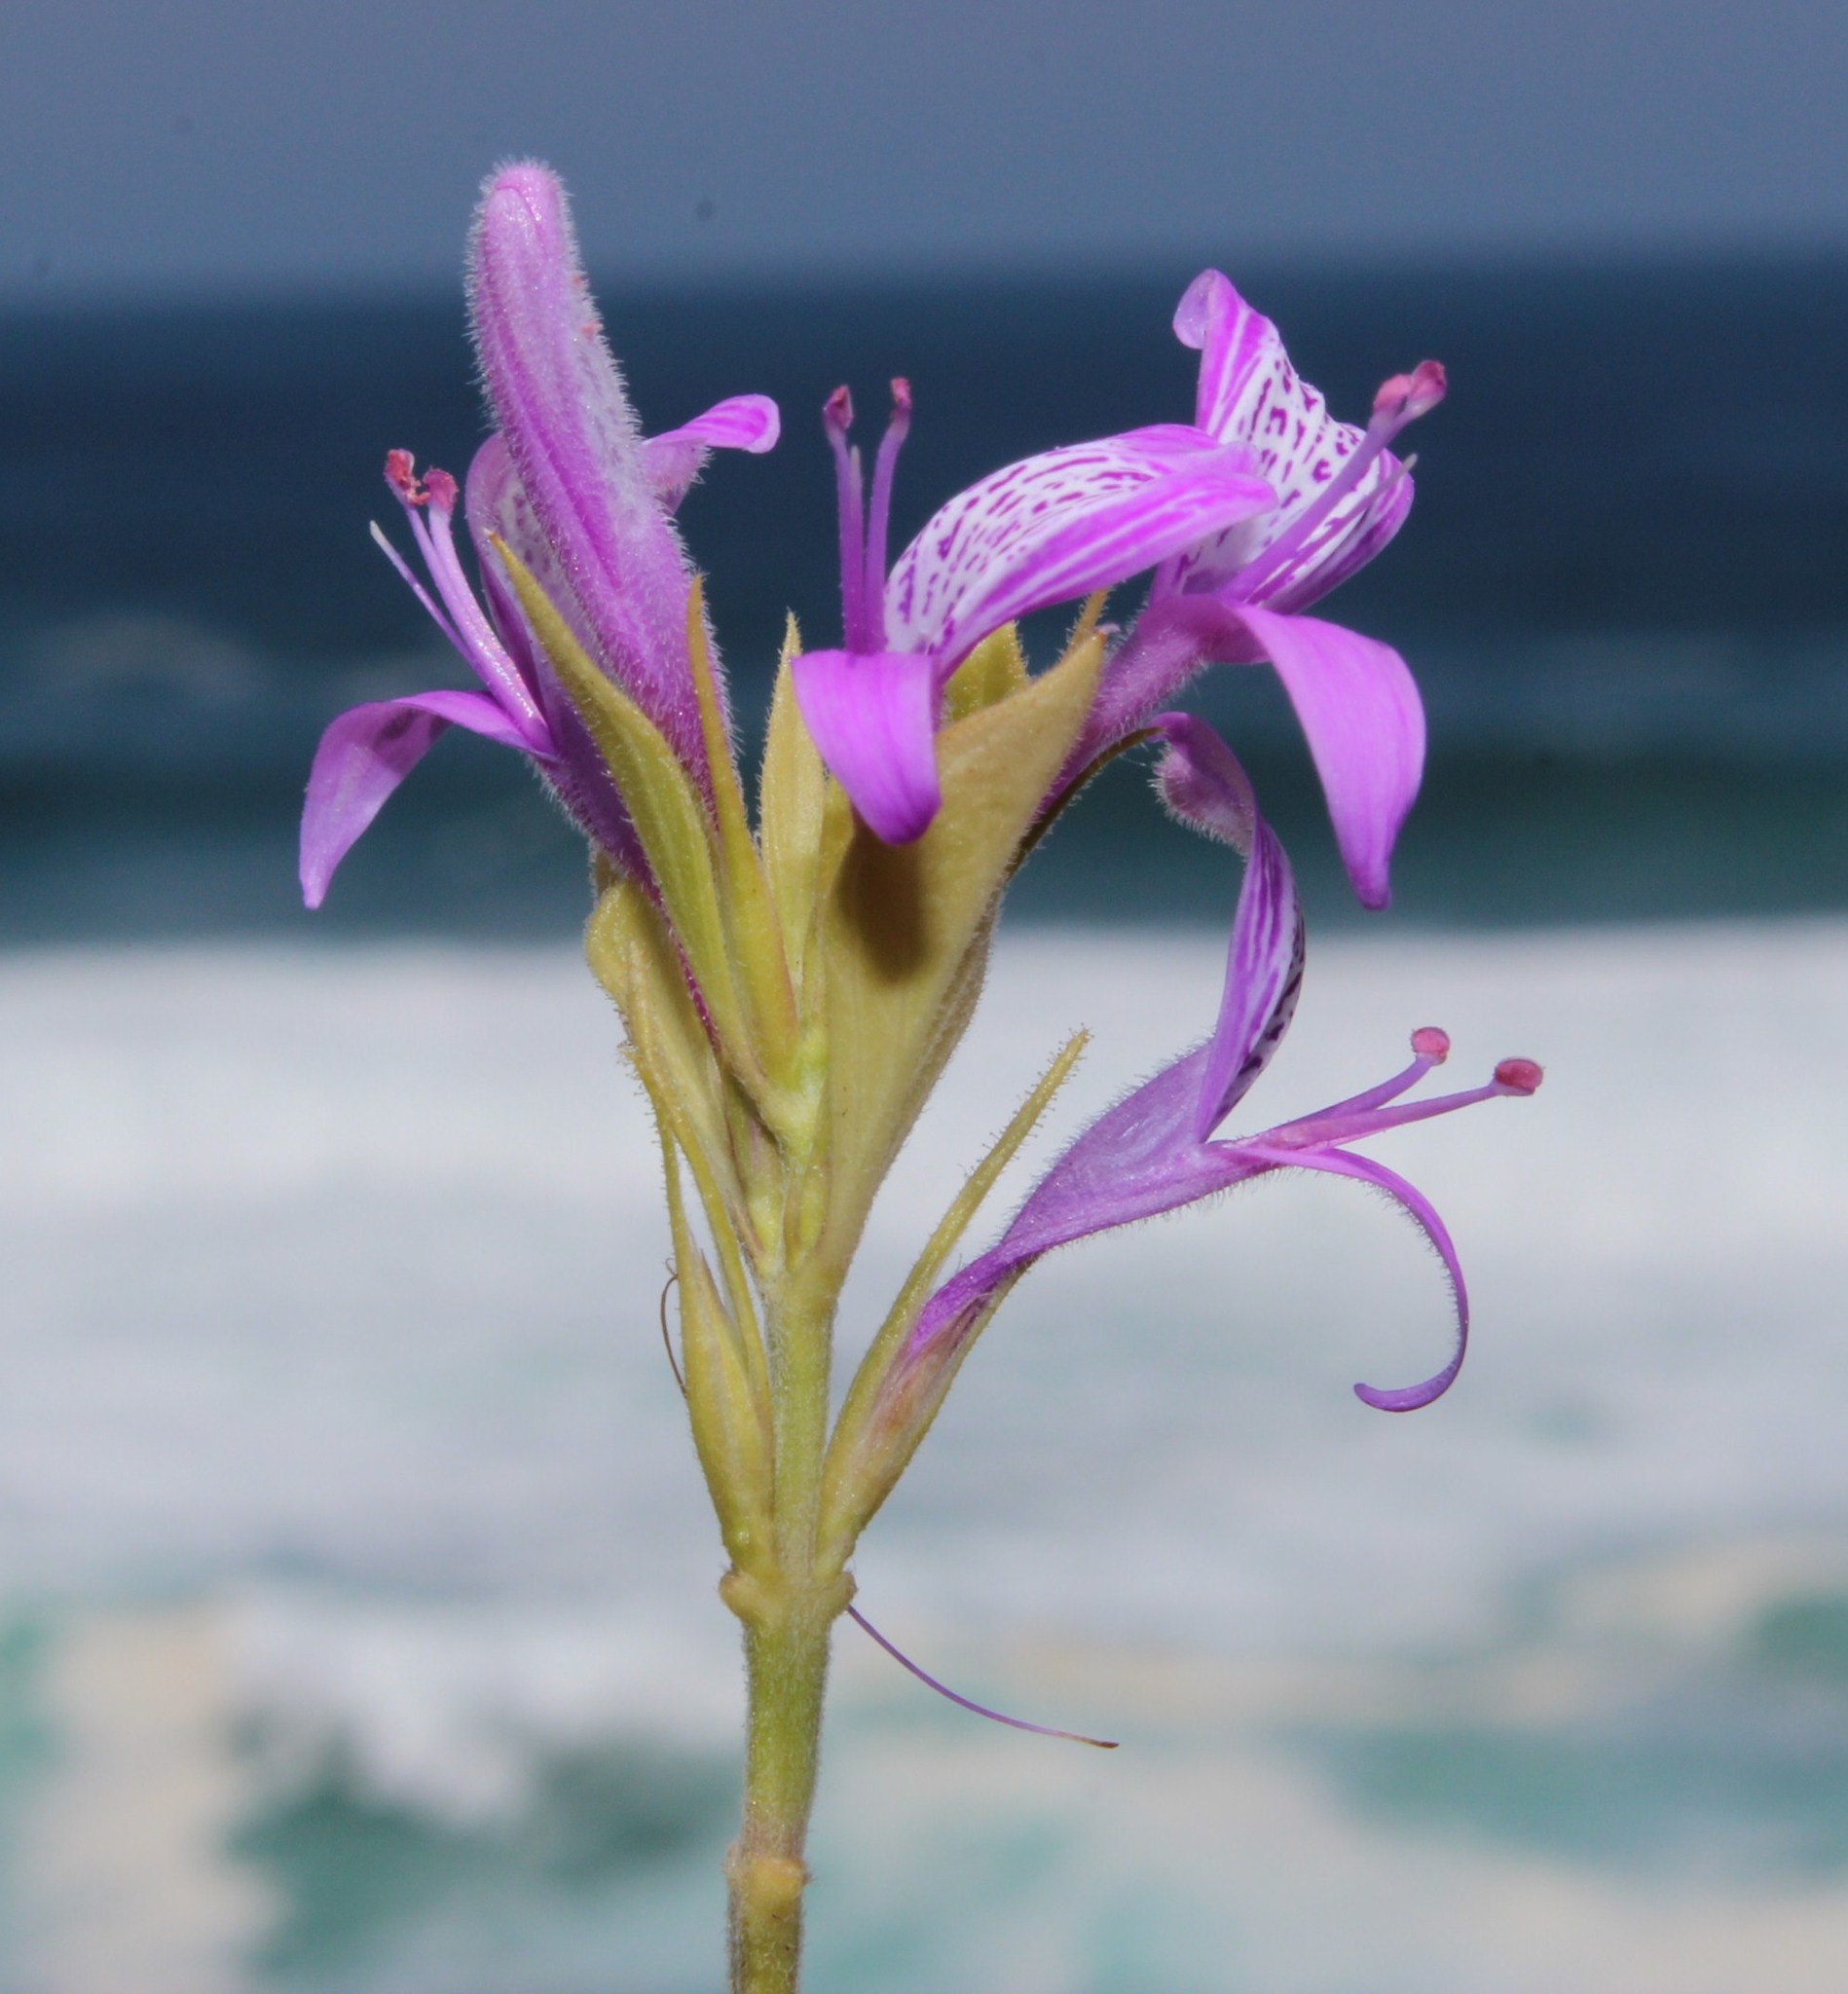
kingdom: Plantae
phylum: Tracheophyta
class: Magnoliopsida
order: Lamiales
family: Acanthaceae
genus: Hypoestes
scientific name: Hypoestes aristata
